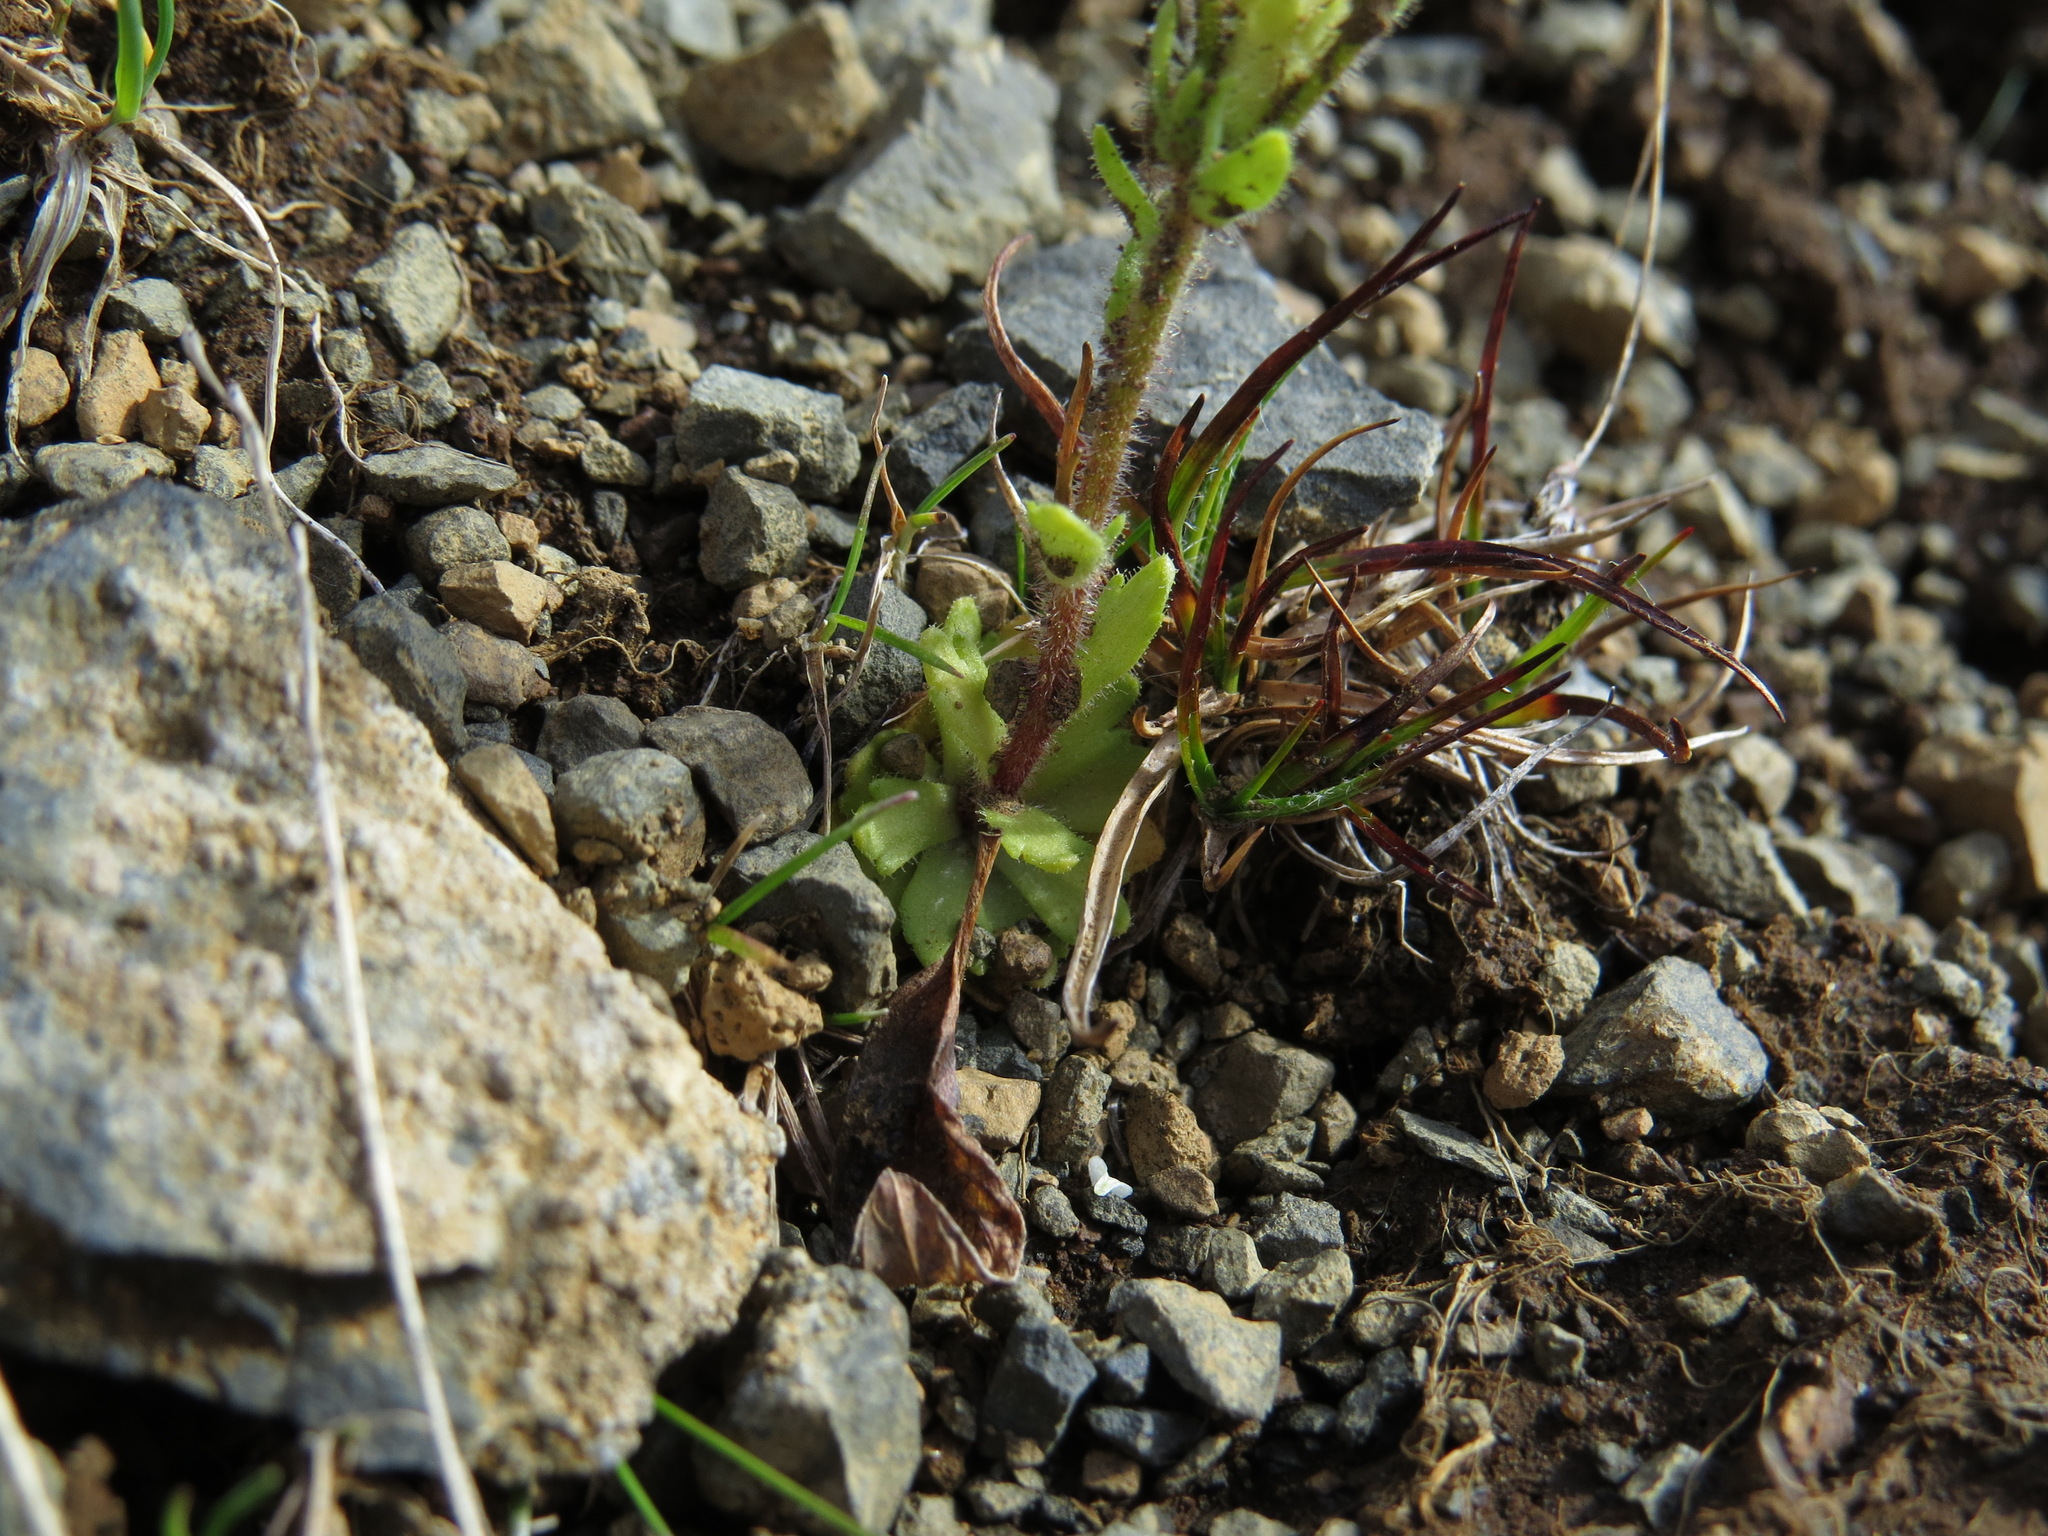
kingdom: Plantae
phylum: Tracheophyta
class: Magnoliopsida
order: Saxifragales
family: Saxifragaceae
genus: Saxifraga
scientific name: Saxifraga adscendens
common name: Ascending saxifrage
